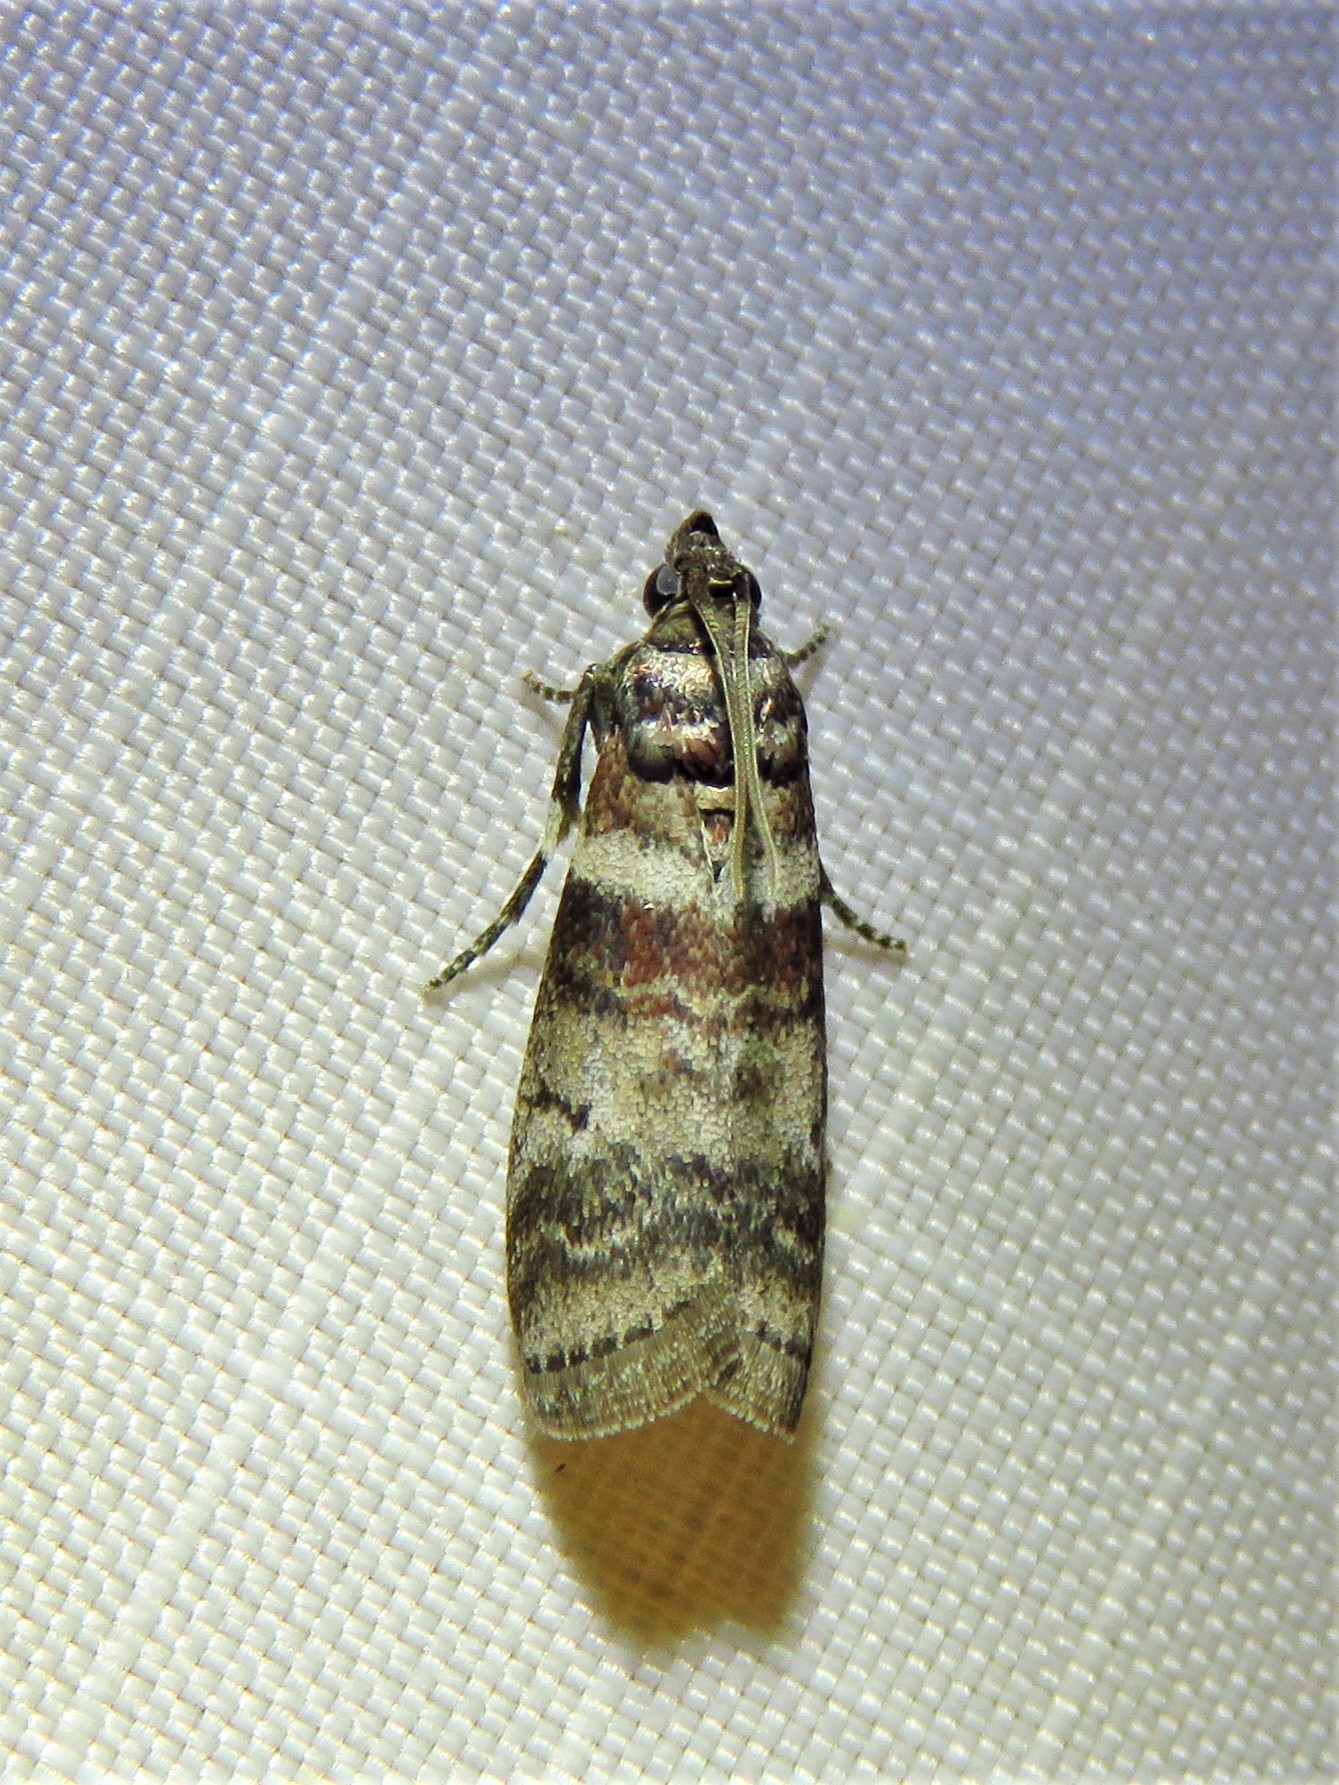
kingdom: Animalia
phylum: Arthropoda
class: Insecta
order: Lepidoptera
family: Pyralidae
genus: Sciota
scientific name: Sciota uvinella
